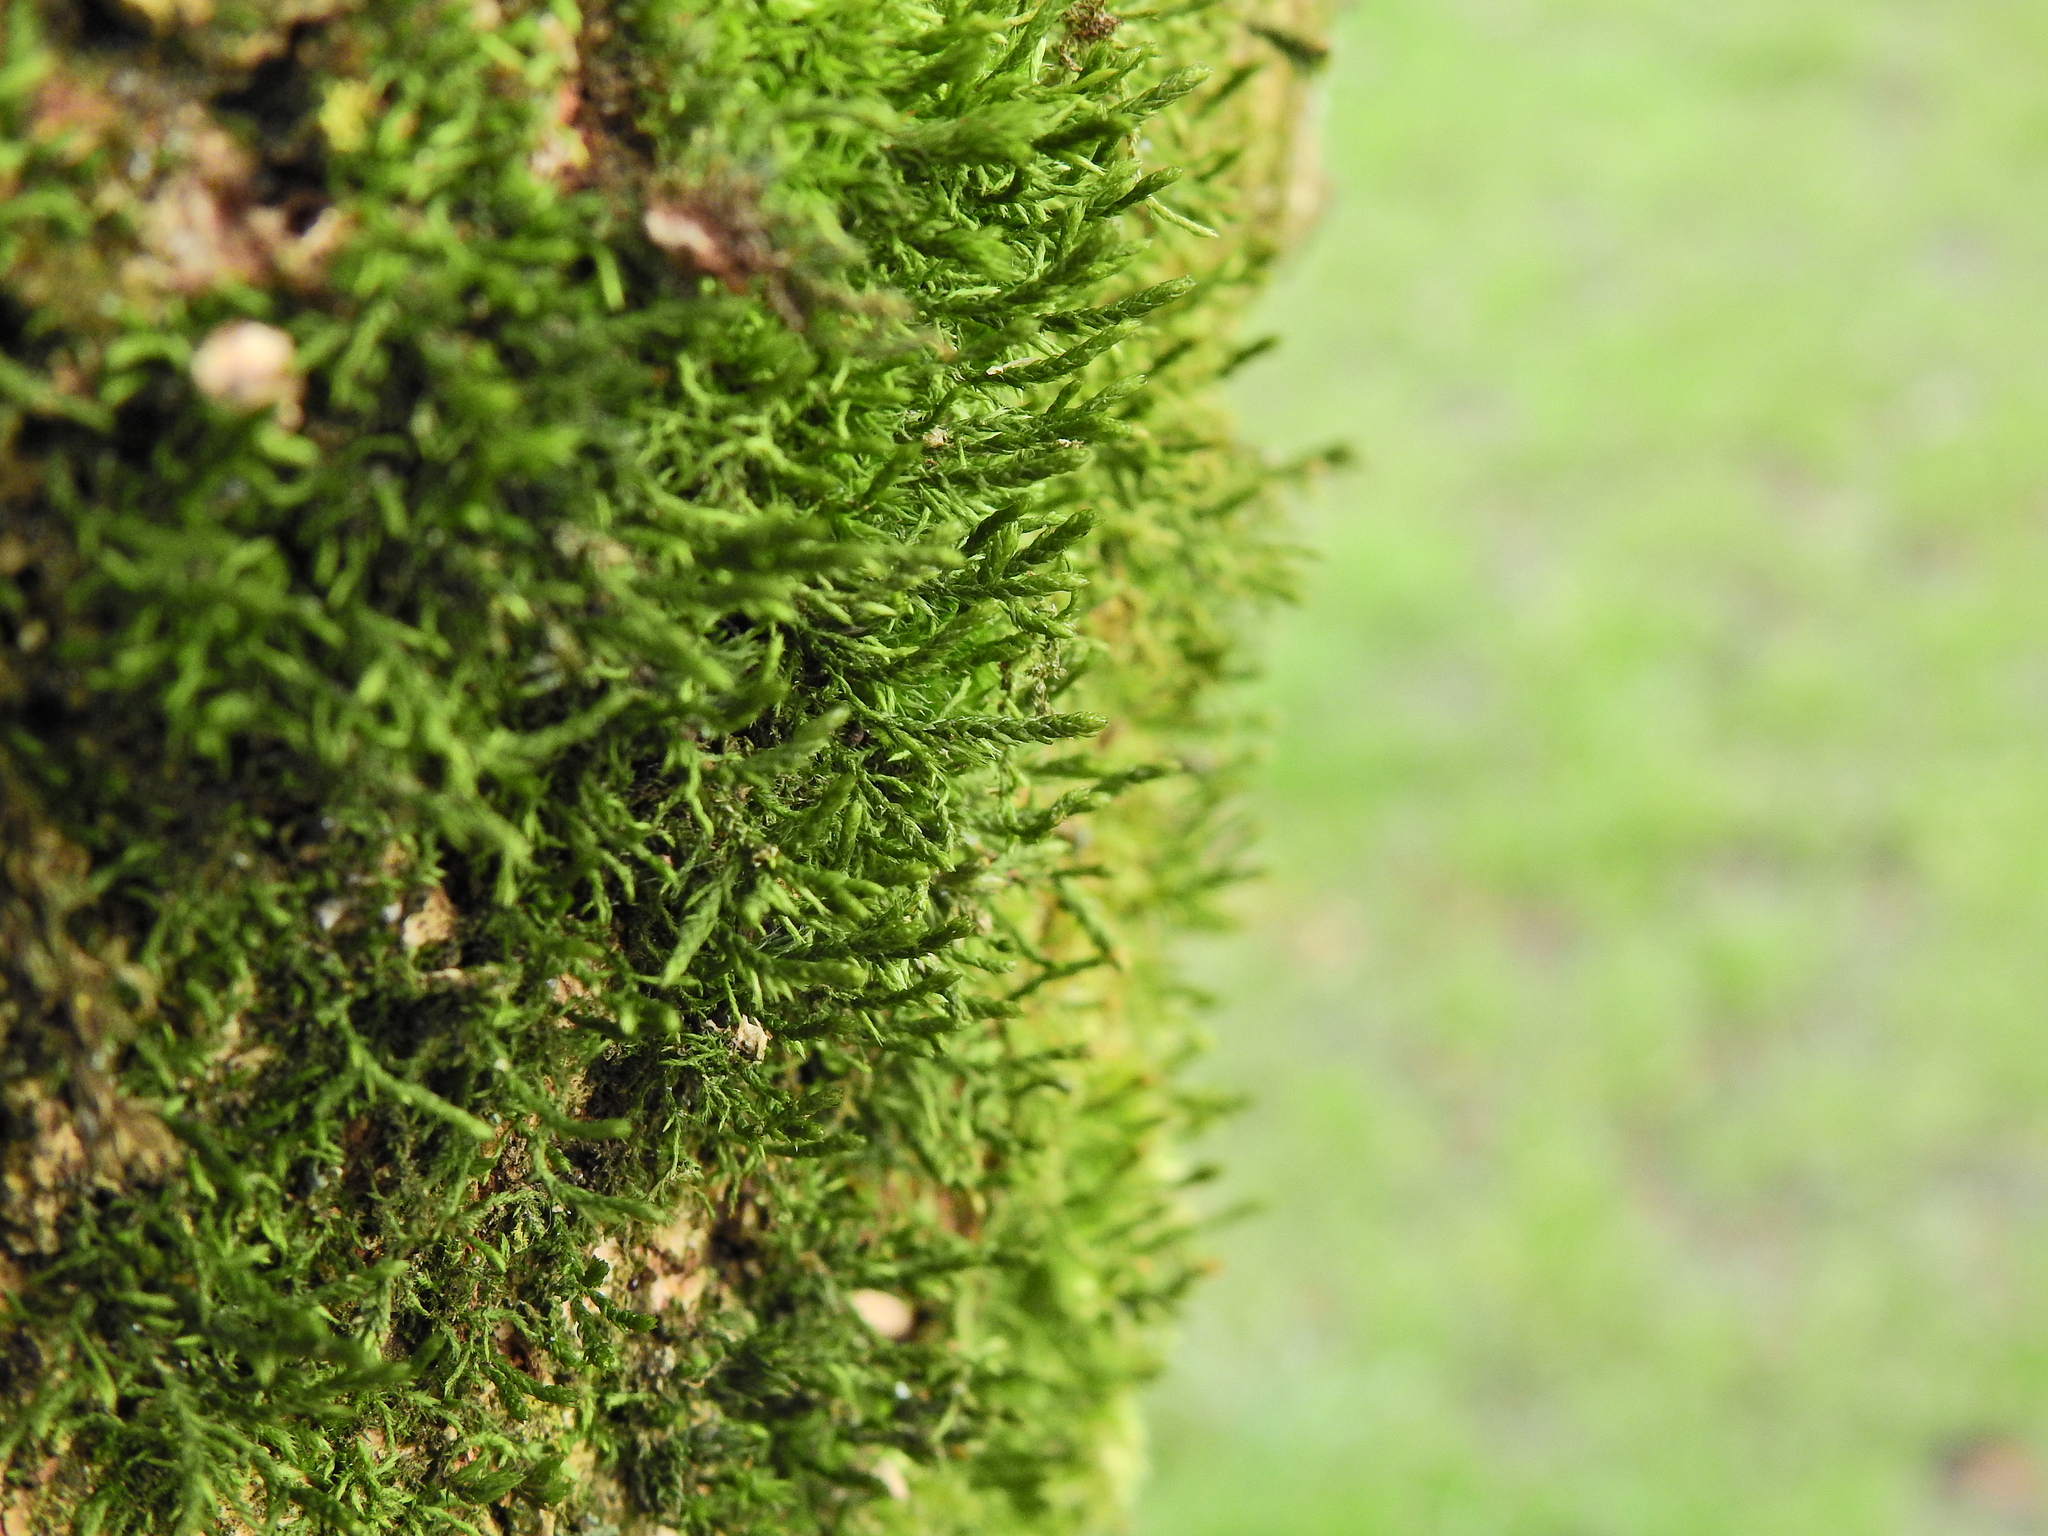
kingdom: Plantae
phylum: Bryophyta
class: Bryopsida
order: Hypnales
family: Cryphaeaceae
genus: Cryphaea
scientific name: Cryphaea heteromalla
